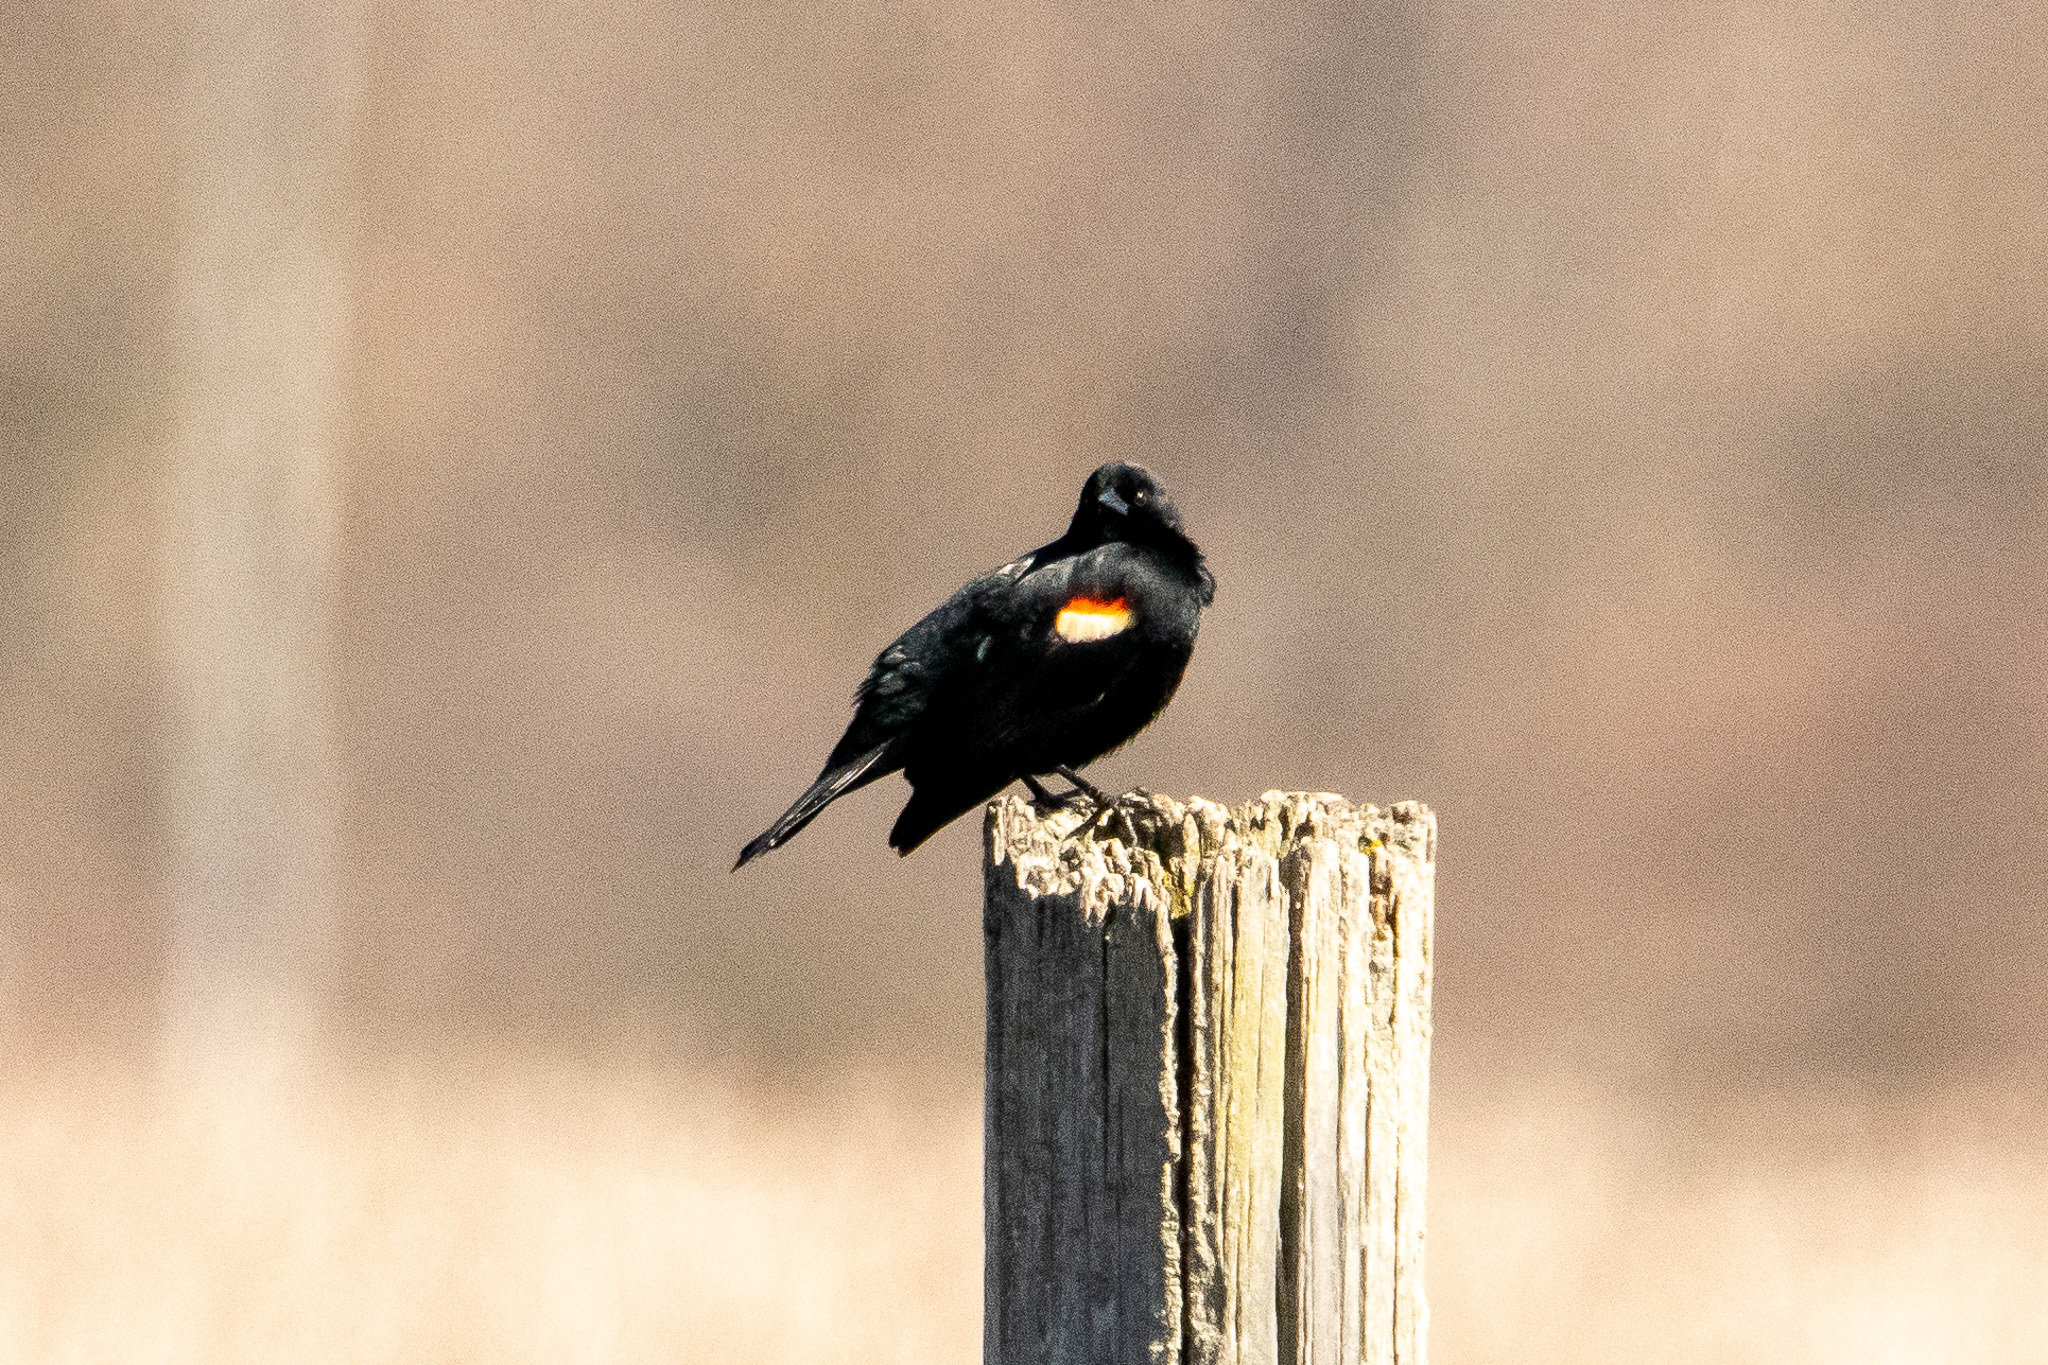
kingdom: Animalia
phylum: Chordata
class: Aves
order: Passeriformes
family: Icteridae
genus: Agelaius
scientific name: Agelaius phoeniceus
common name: Red-winged blackbird
